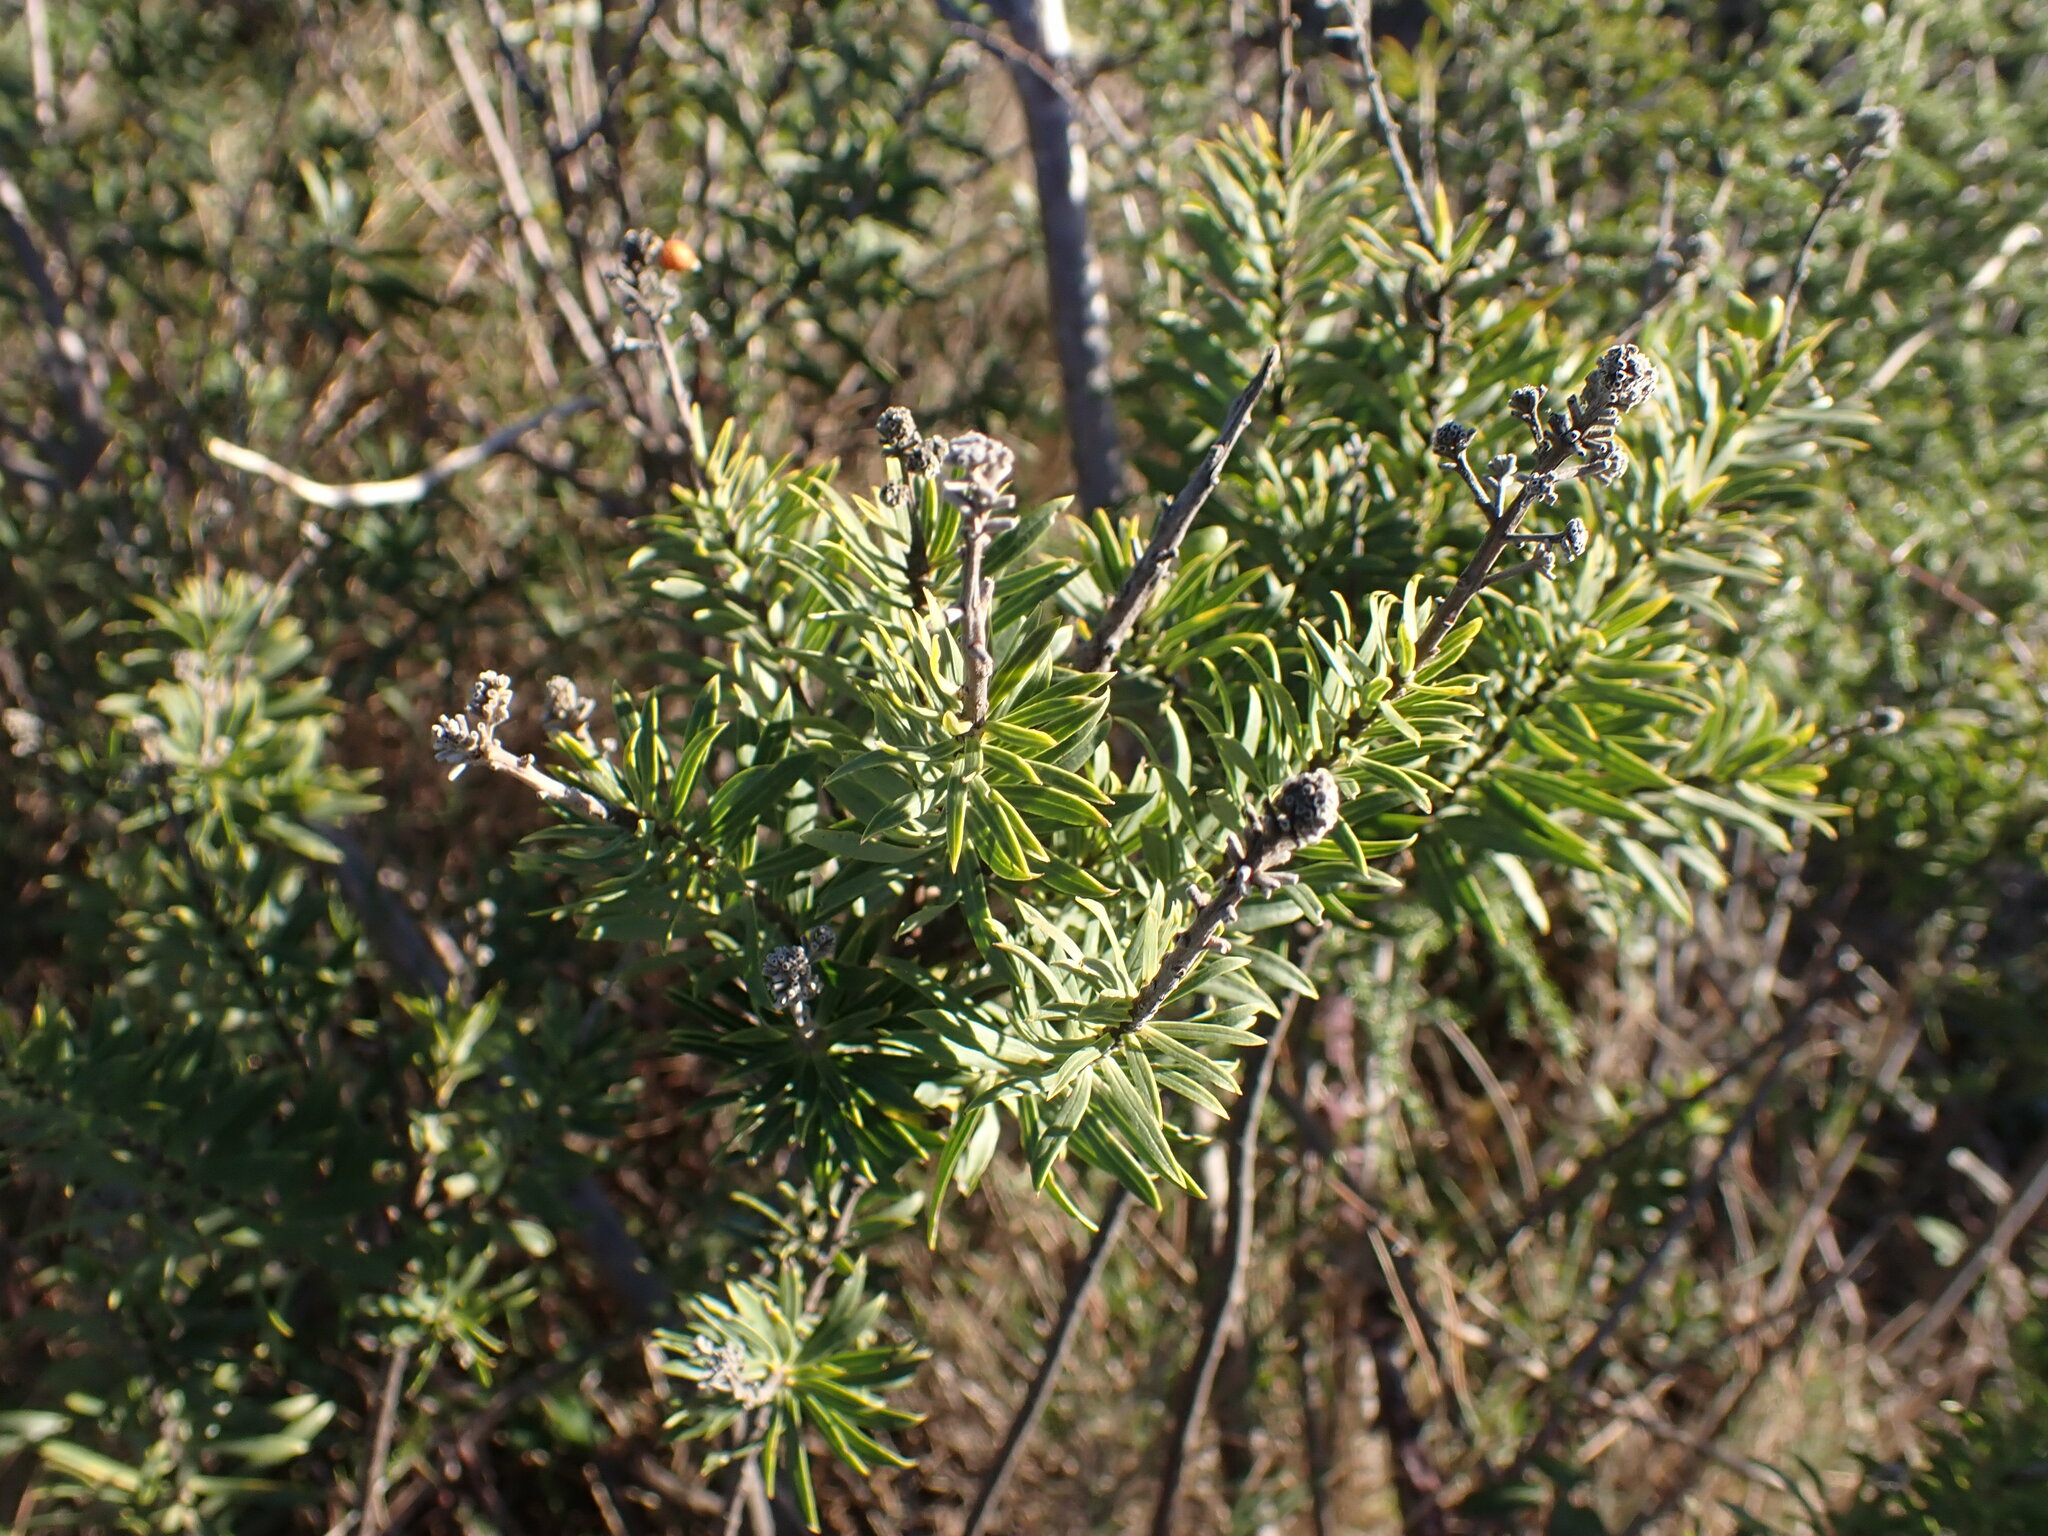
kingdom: Plantae
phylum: Tracheophyta
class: Magnoliopsida
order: Malvales
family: Thymelaeaceae
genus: Daphne
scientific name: Daphne gnidium
